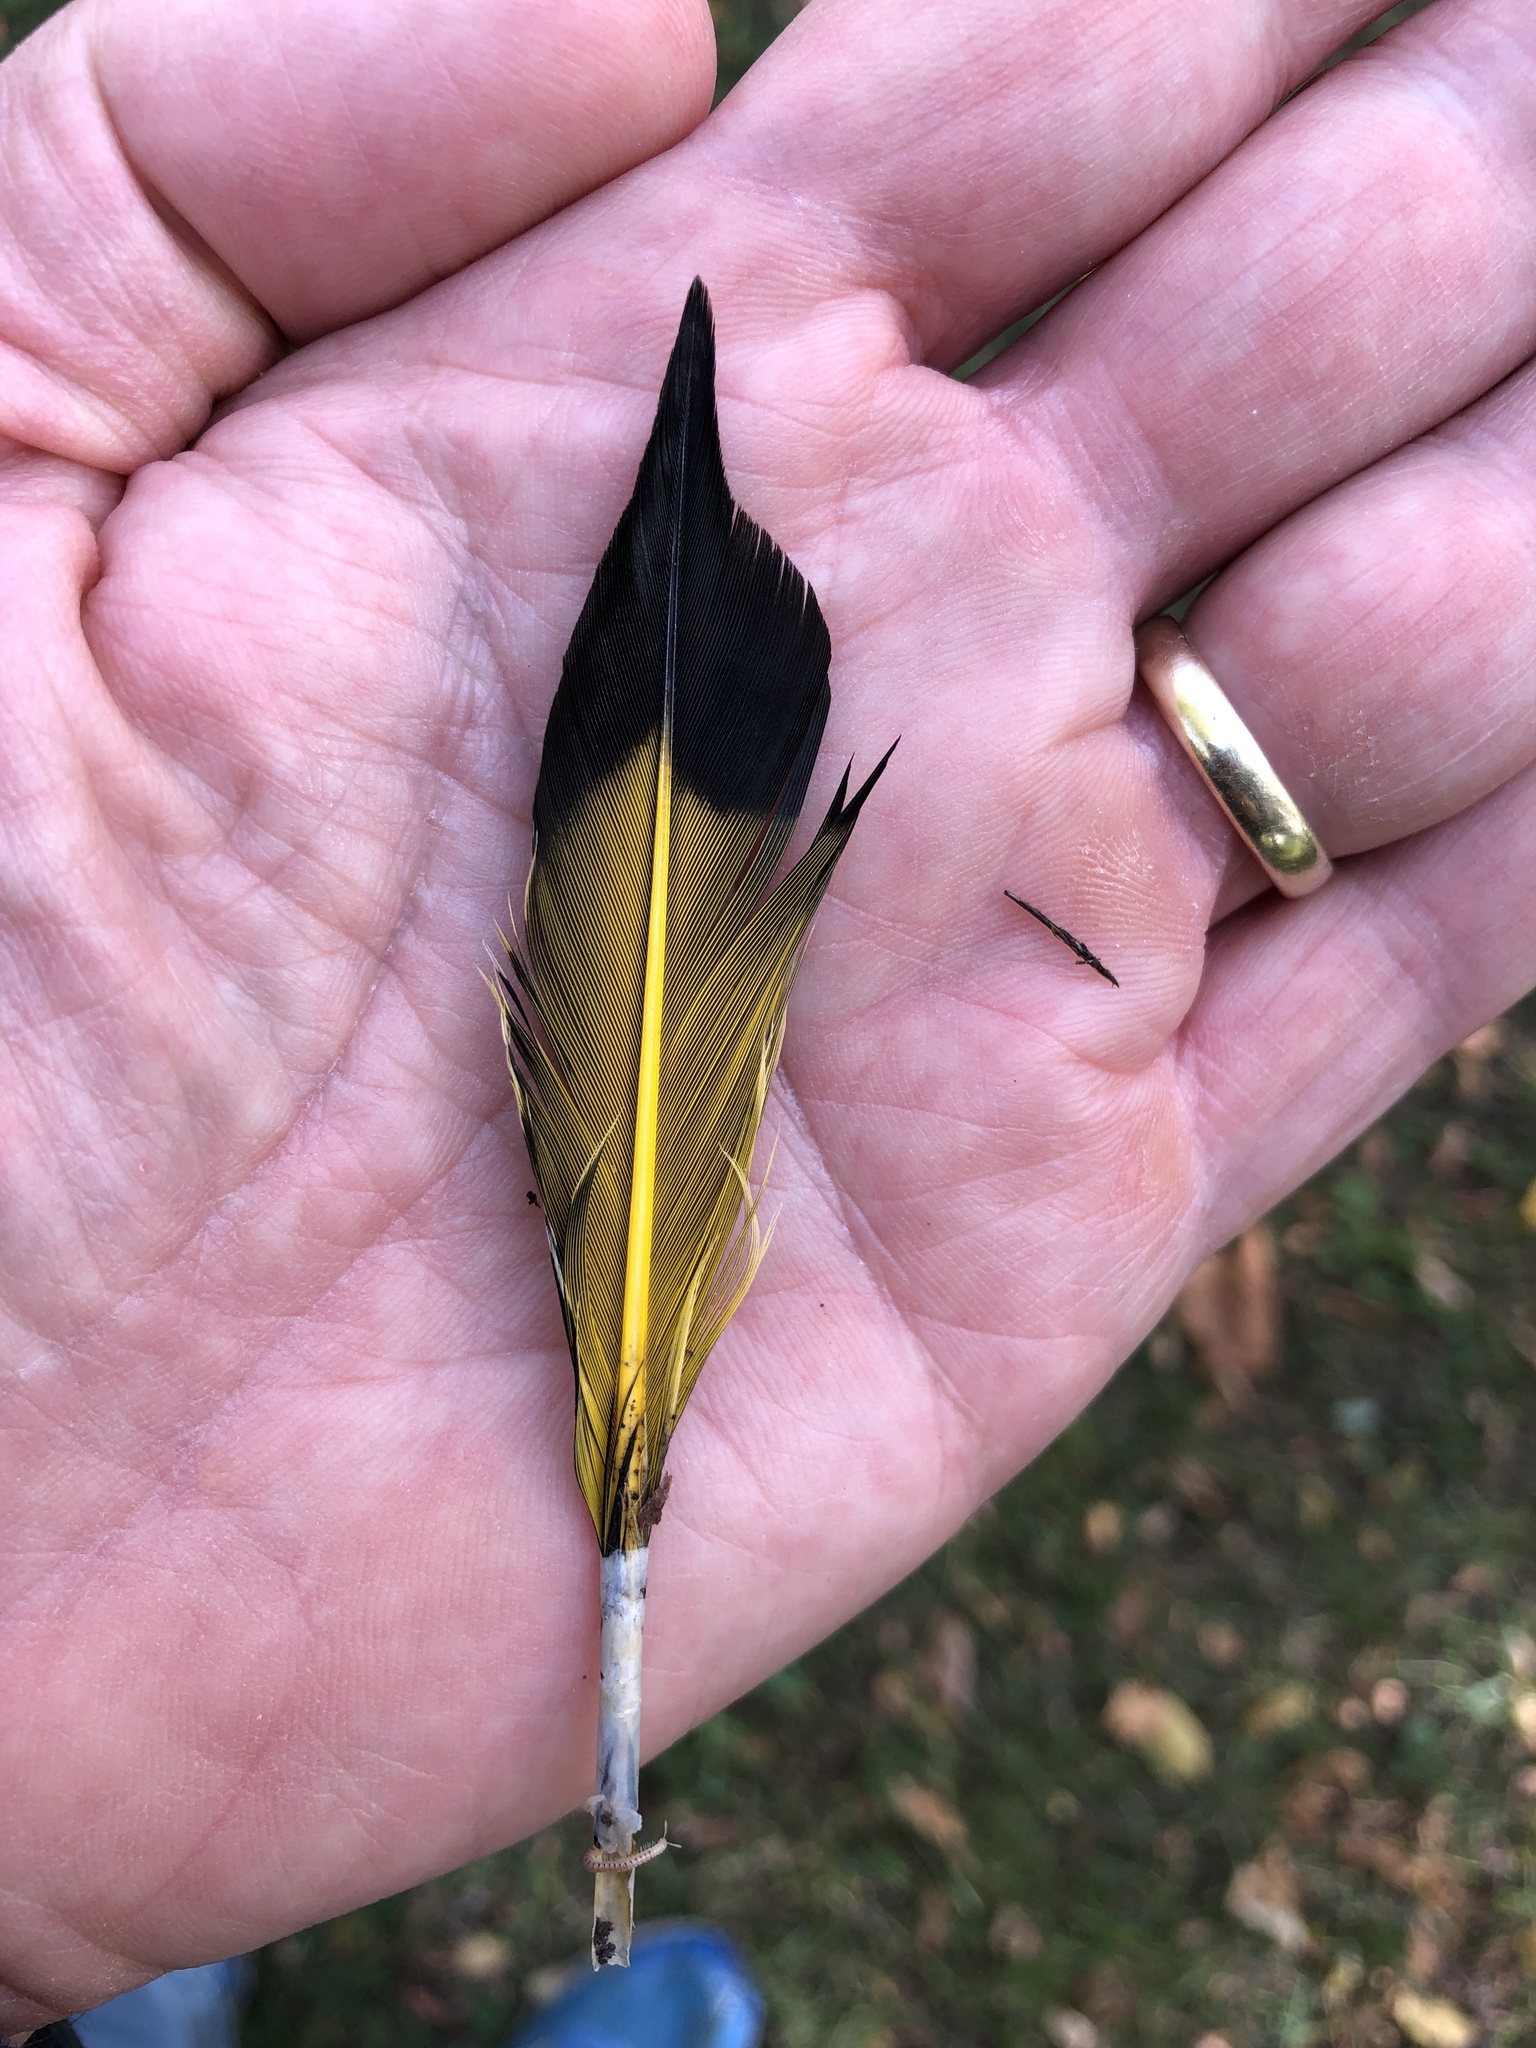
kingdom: Animalia
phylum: Chordata
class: Aves
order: Piciformes
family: Picidae
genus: Colaptes
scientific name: Colaptes auratus
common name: Northern flicker
